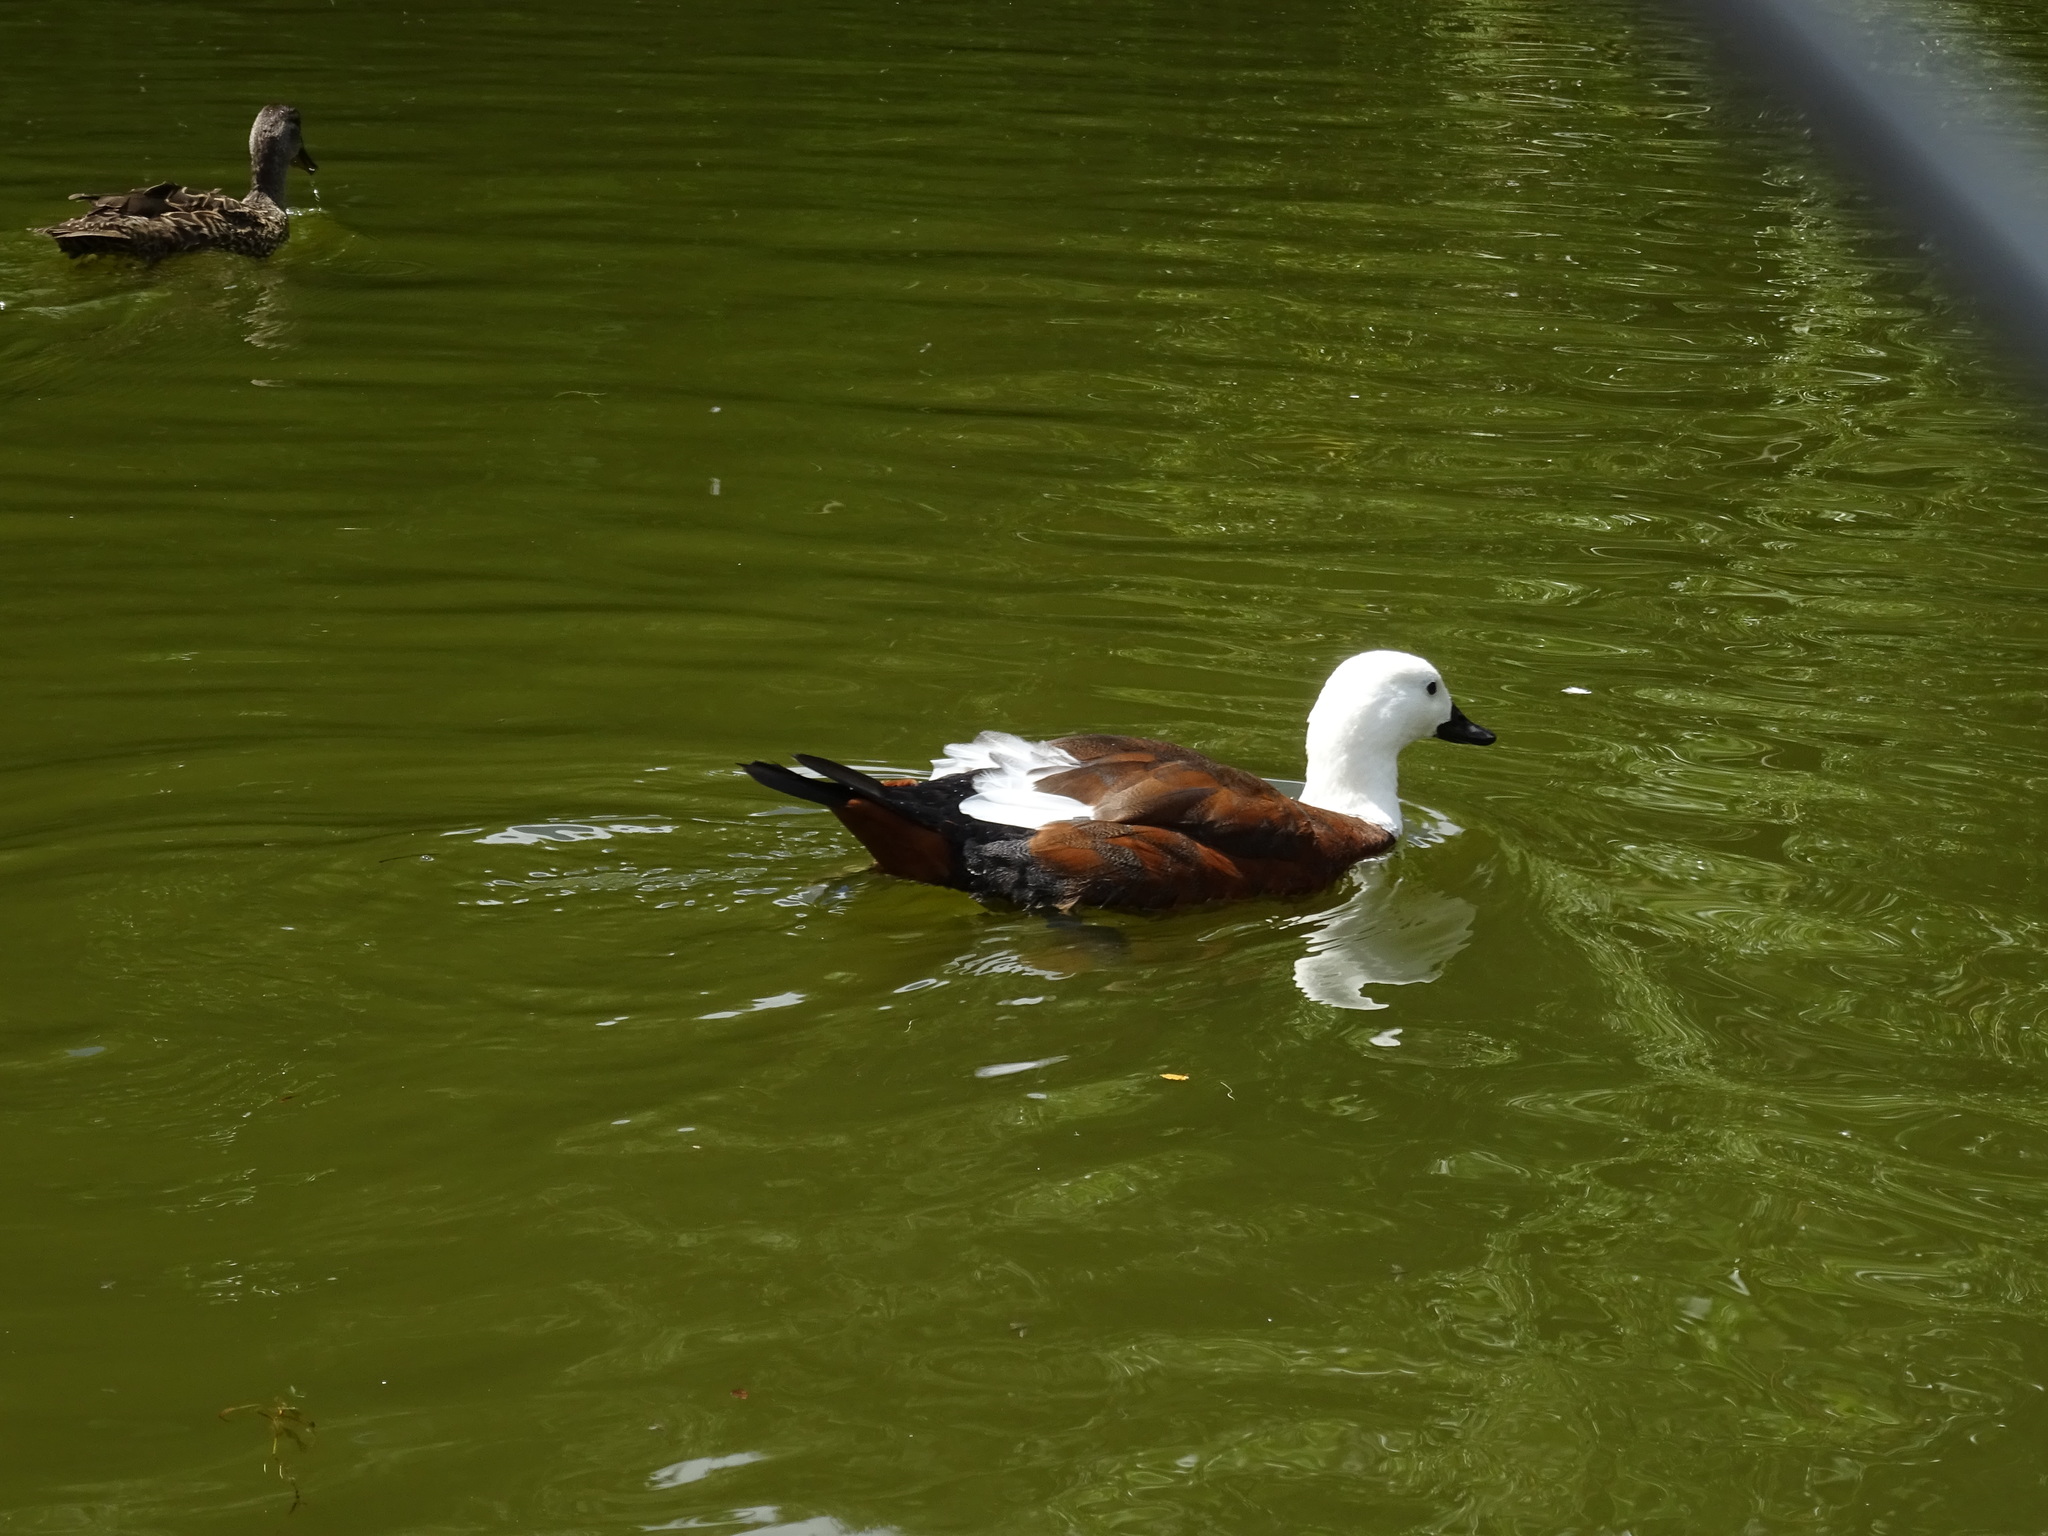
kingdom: Animalia
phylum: Chordata
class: Aves
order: Anseriformes
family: Anatidae
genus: Tadorna
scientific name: Tadorna variegata
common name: Paradise shelduck
